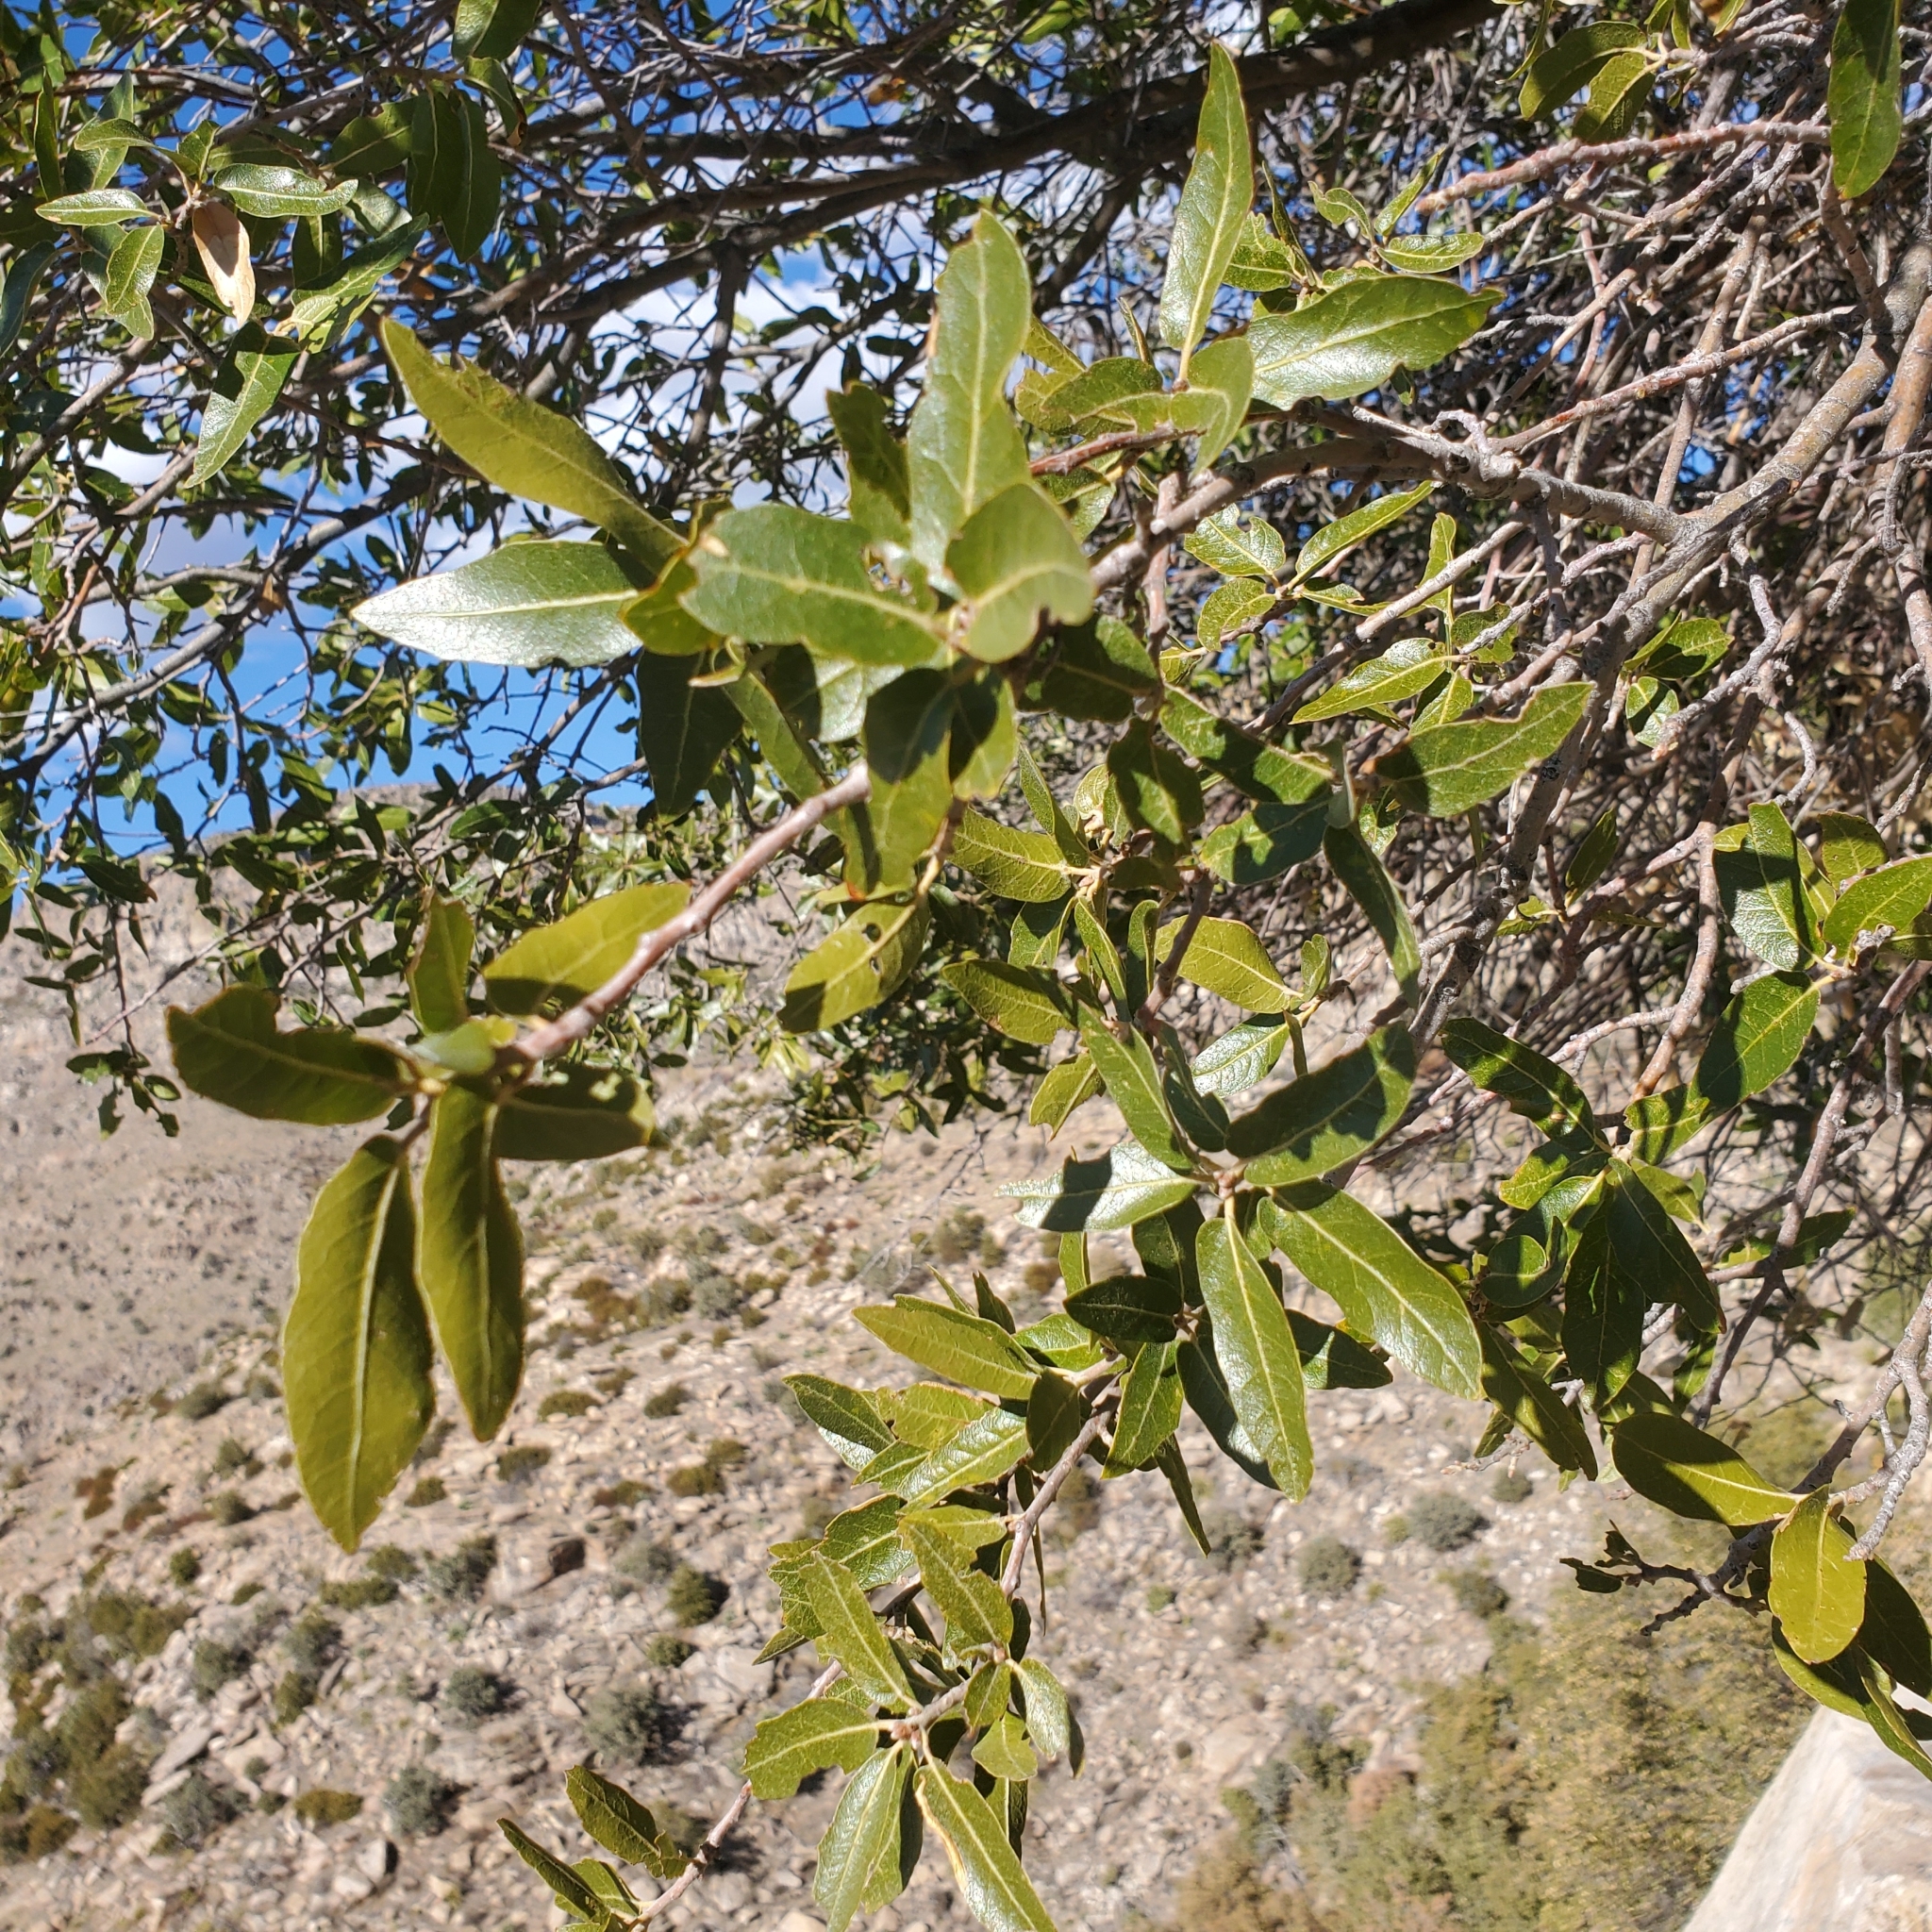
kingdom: Plantae
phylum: Tracheophyta
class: Magnoliopsida
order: Fagales
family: Fagaceae
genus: Quercus
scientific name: Quercus emoryi
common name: Emory oak
